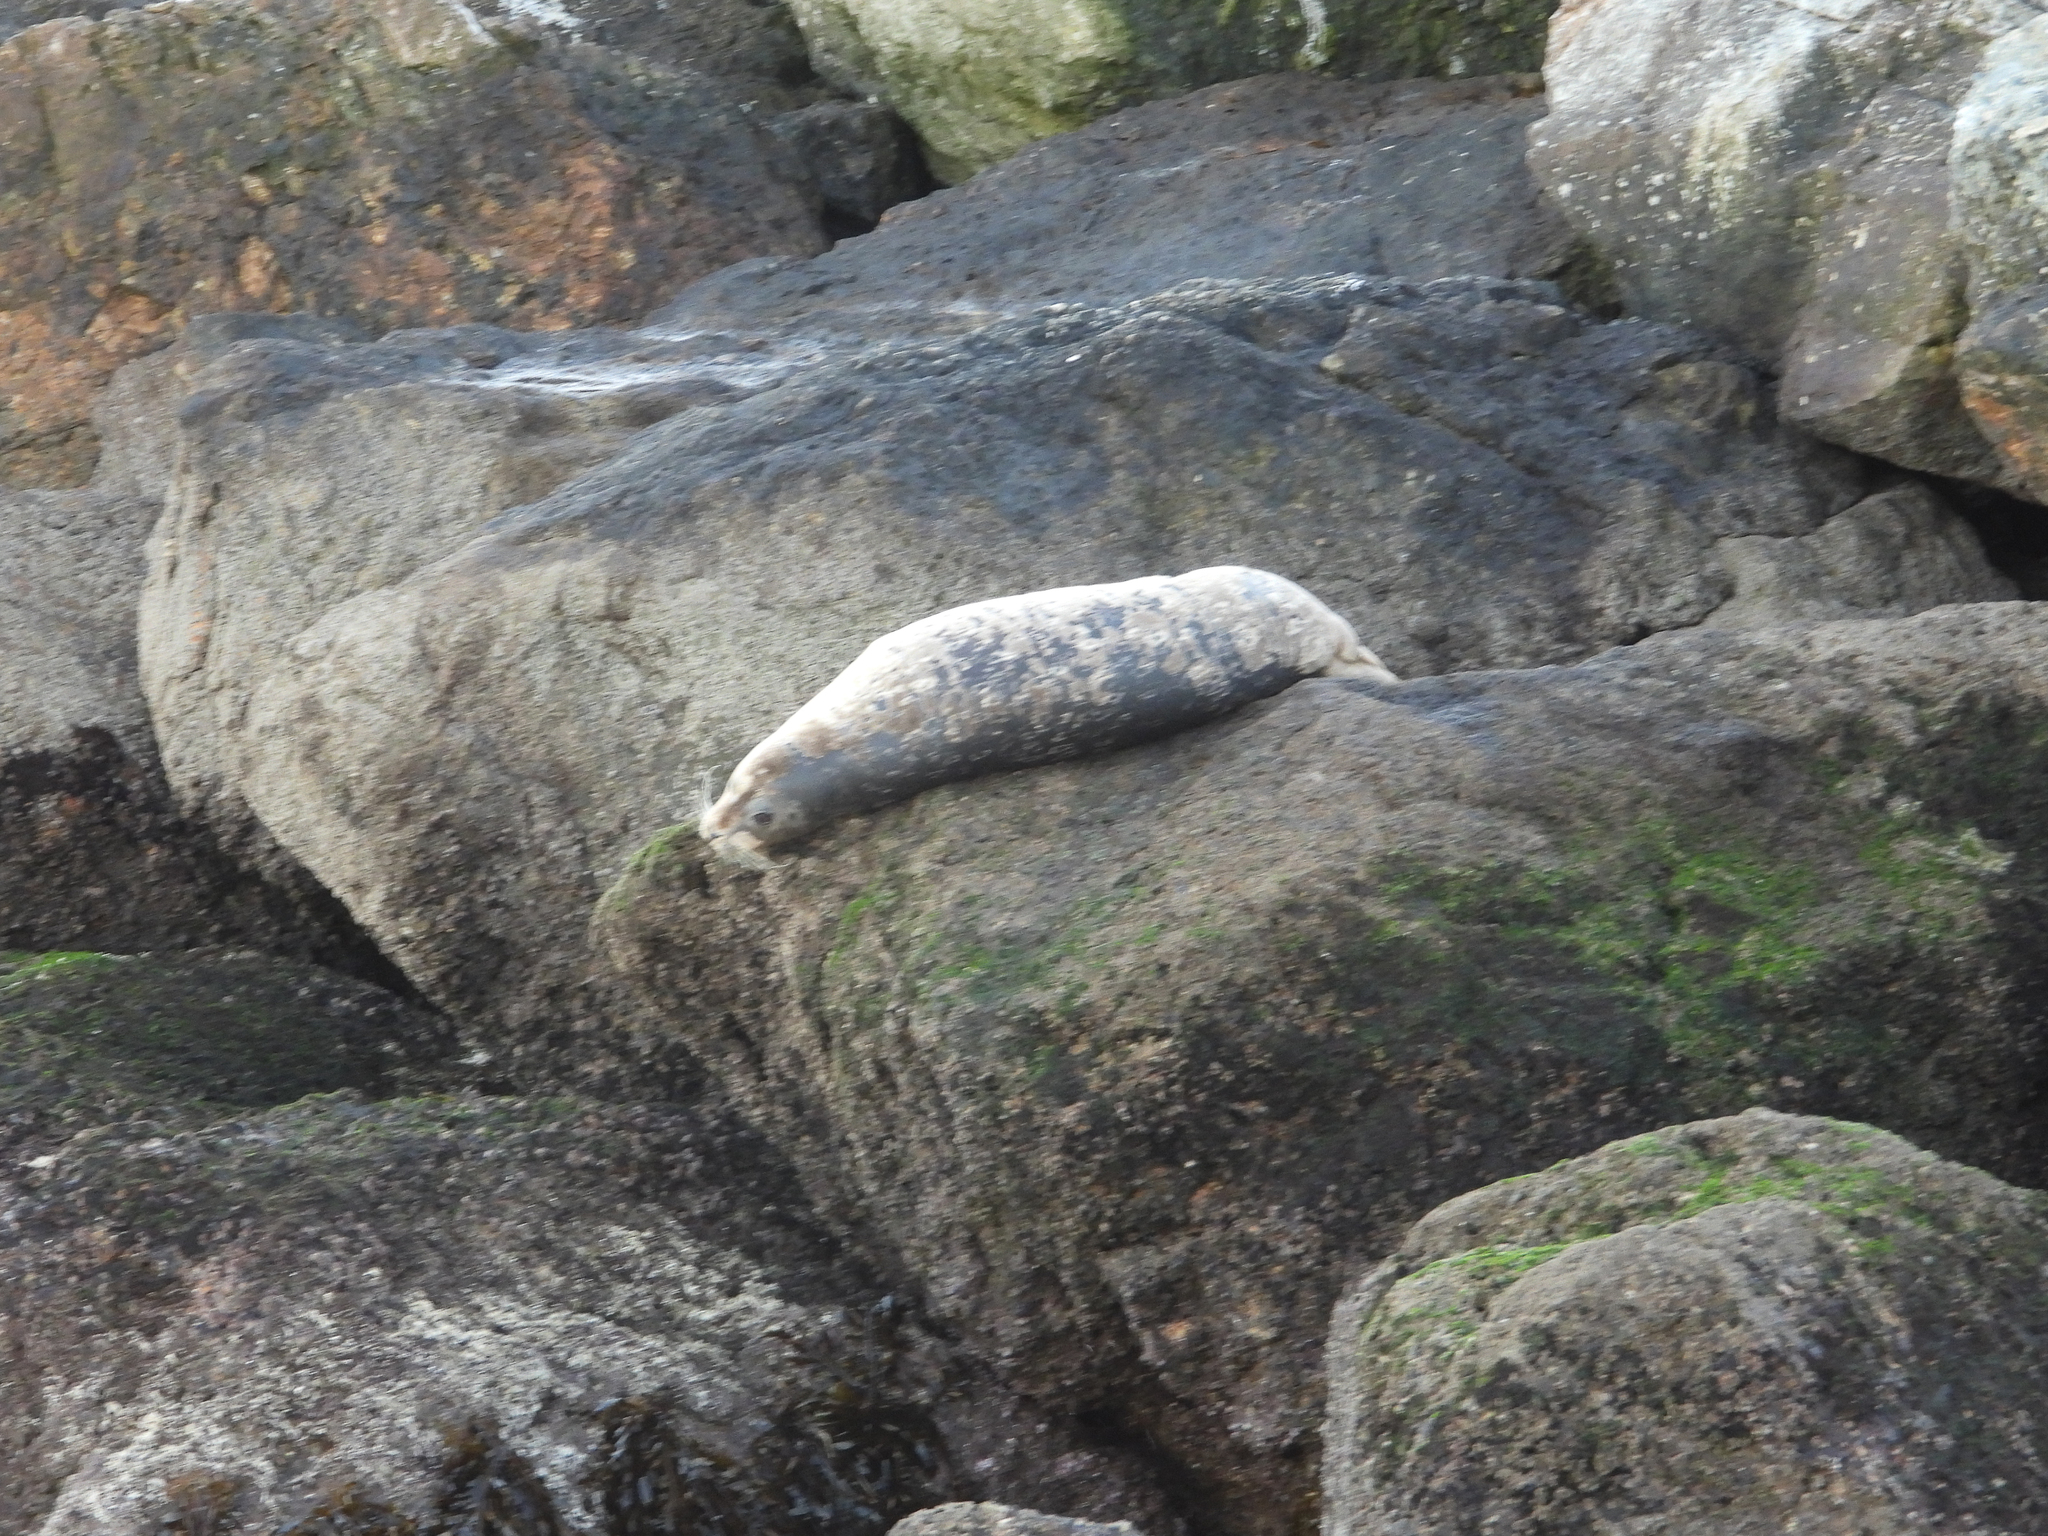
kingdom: Animalia
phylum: Chordata
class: Mammalia
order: Carnivora
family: Phocidae
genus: Phoca
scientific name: Phoca vitulina
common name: Harbor seal
